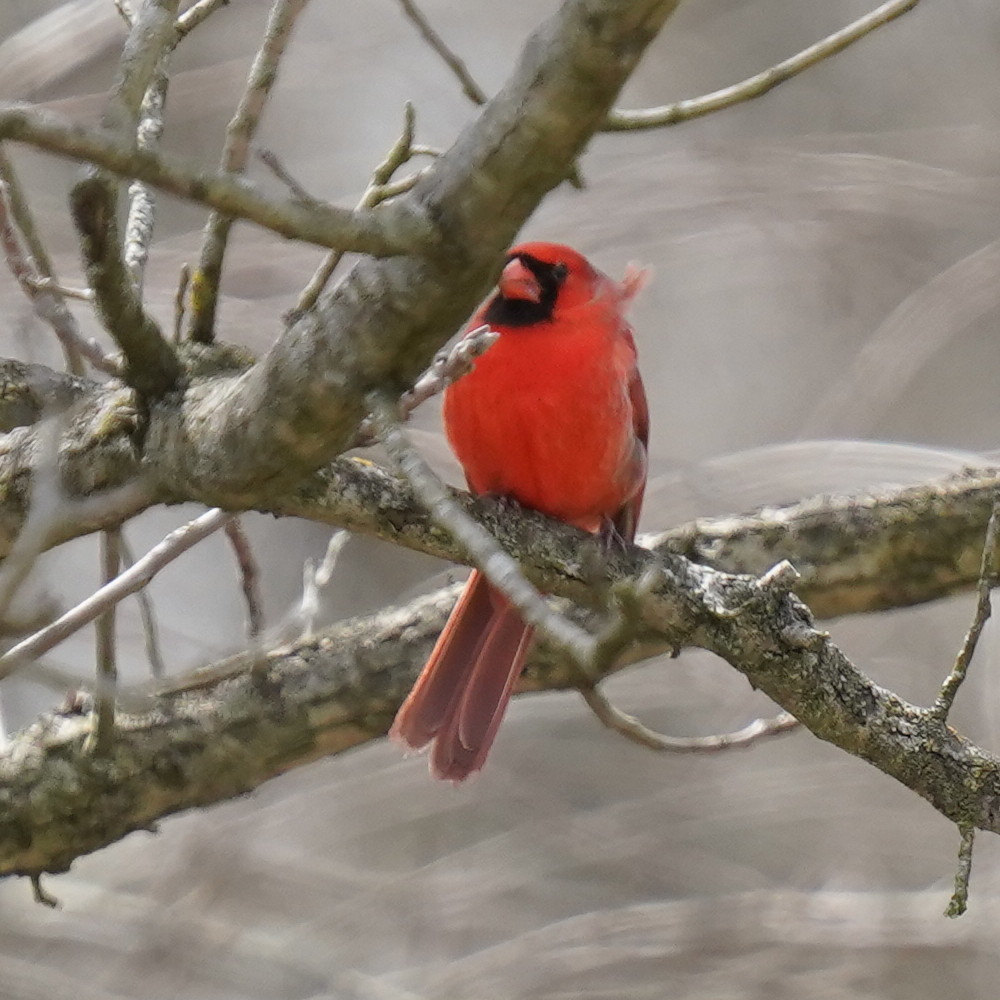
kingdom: Animalia
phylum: Chordata
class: Aves
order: Passeriformes
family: Cardinalidae
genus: Cardinalis
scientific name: Cardinalis cardinalis
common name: Northern cardinal
